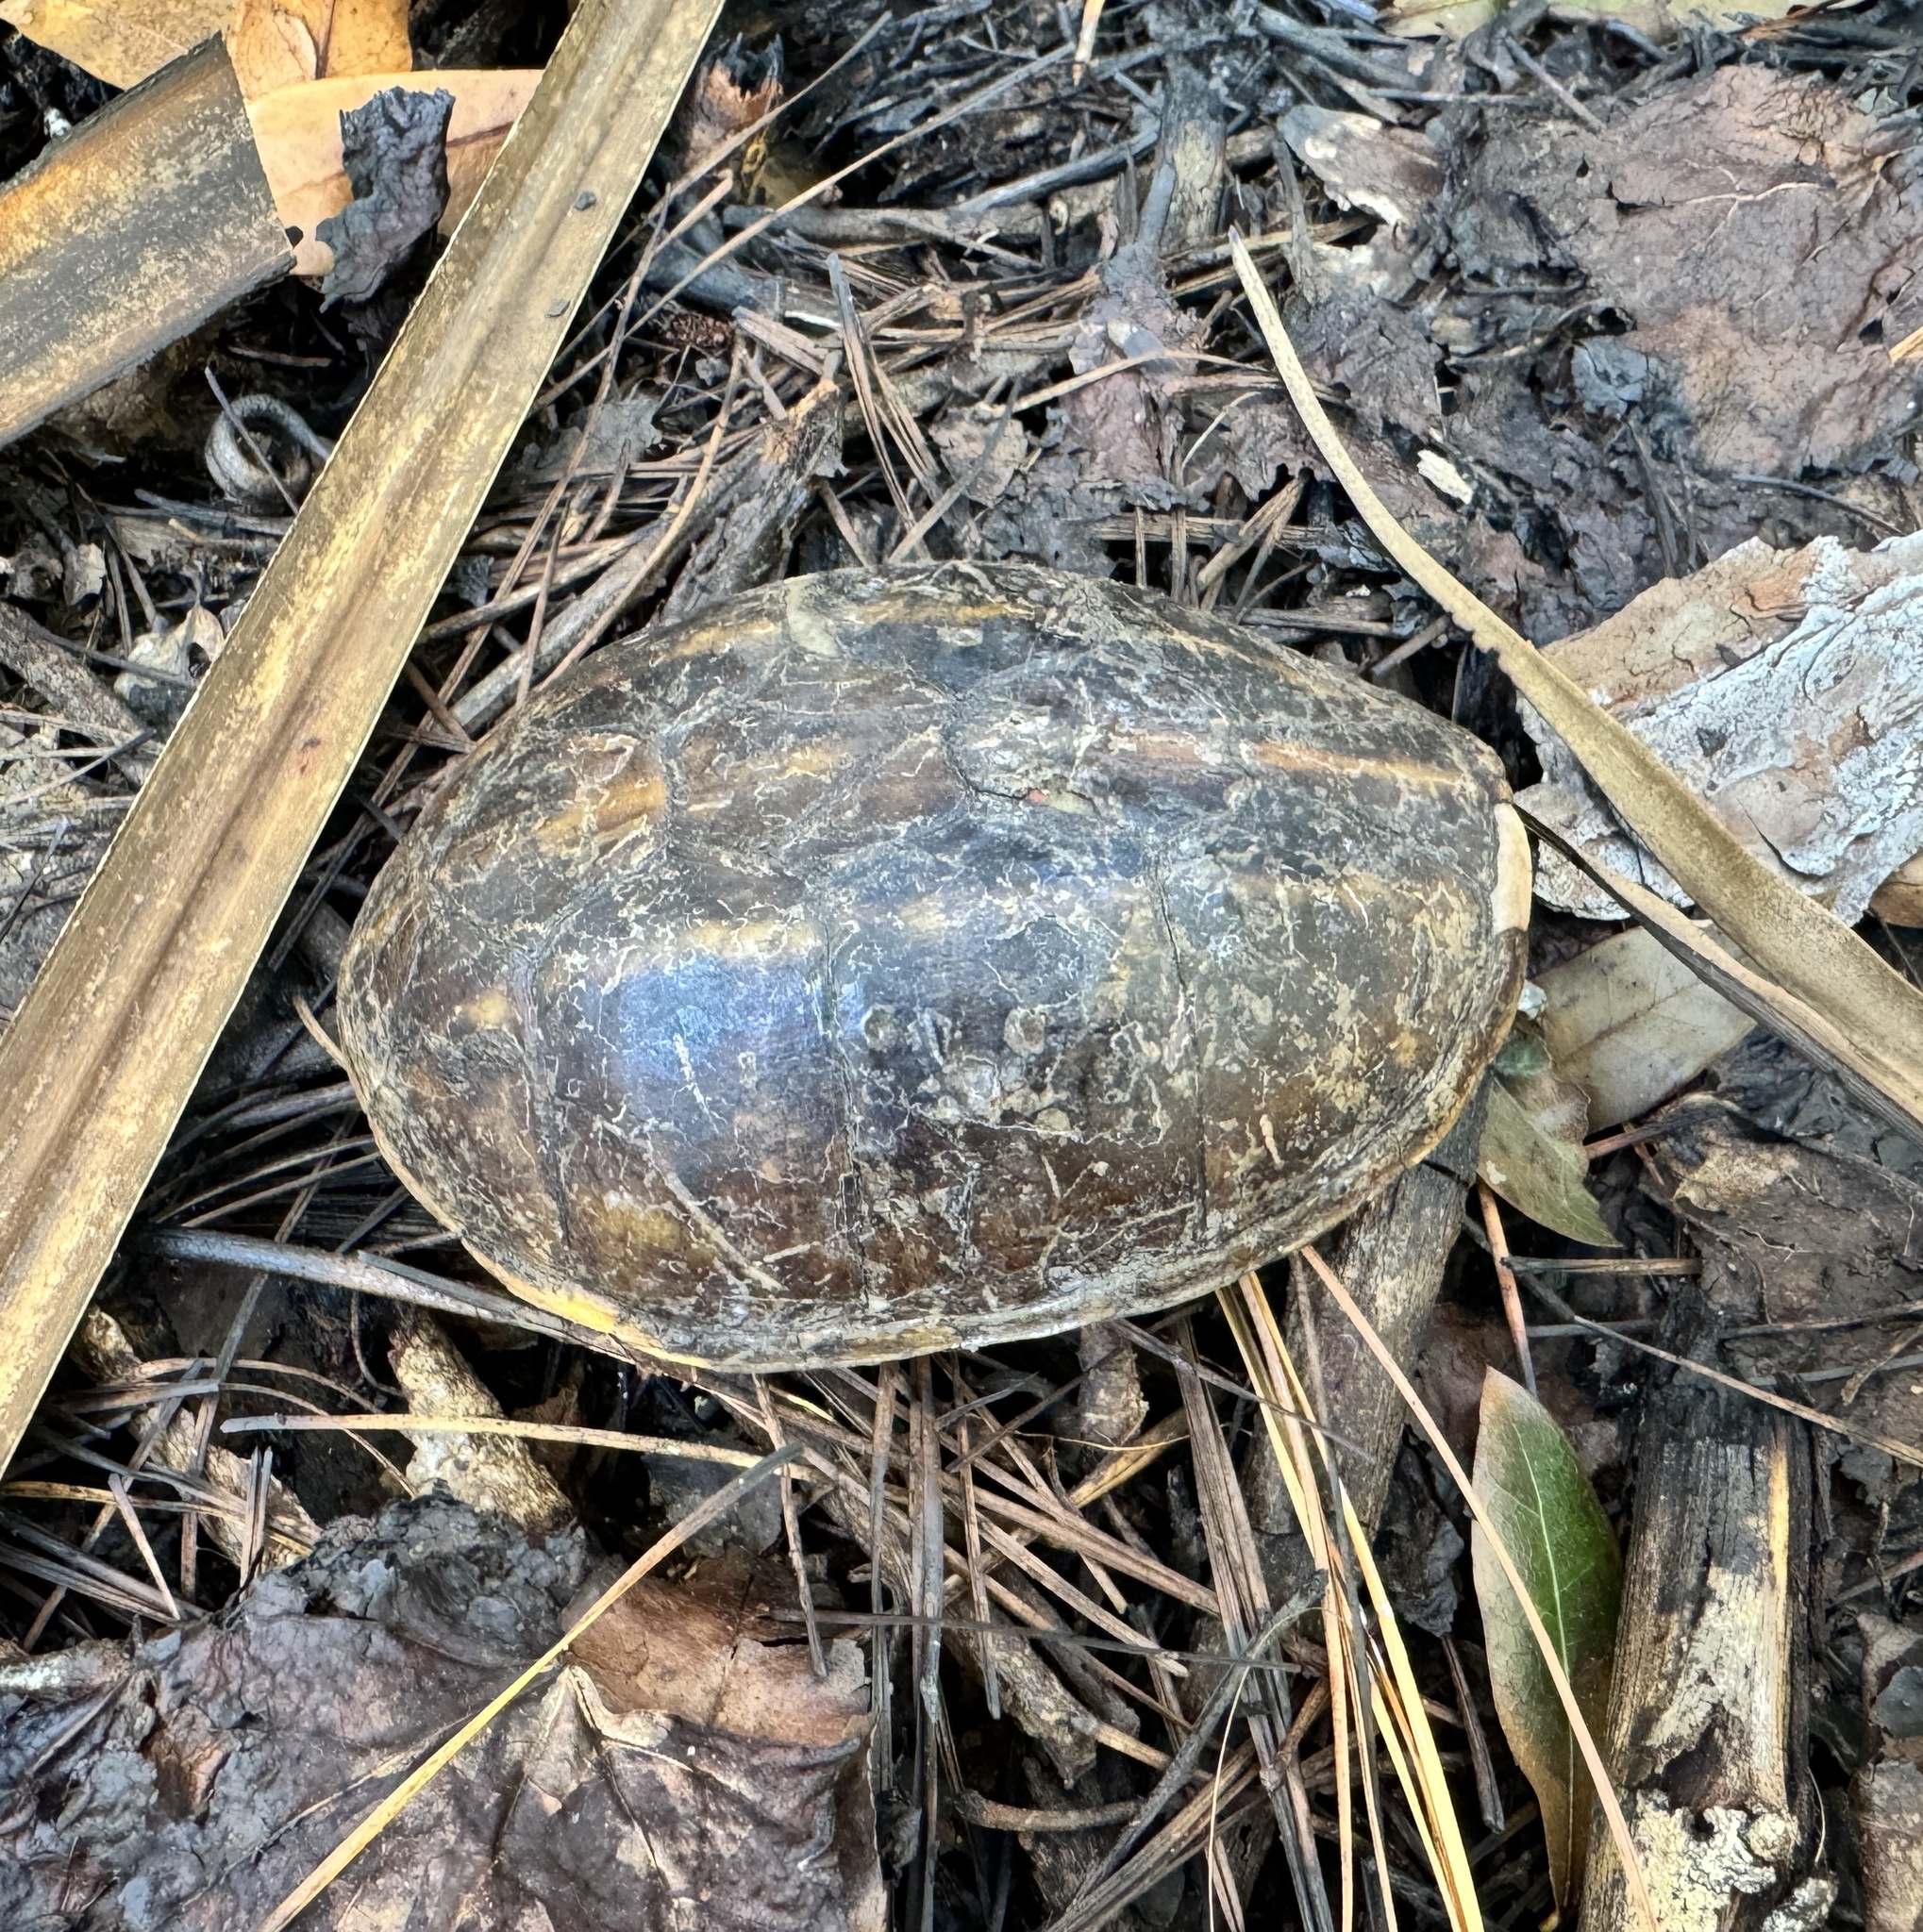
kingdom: Animalia
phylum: Chordata
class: Testudines
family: Kinosternidae
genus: Kinosternon
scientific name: Kinosternon baurii
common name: Striped mud turtle
